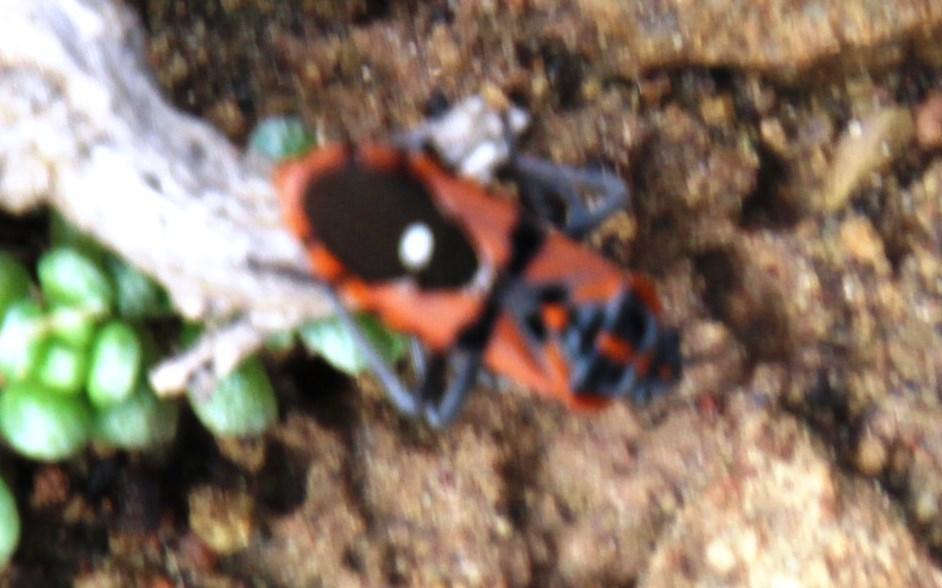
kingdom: Animalia
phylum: Arthropoda
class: Insecta
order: Hemiptera
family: Lygaeidae
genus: Spilostethus
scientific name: Spilostethus macilentus
